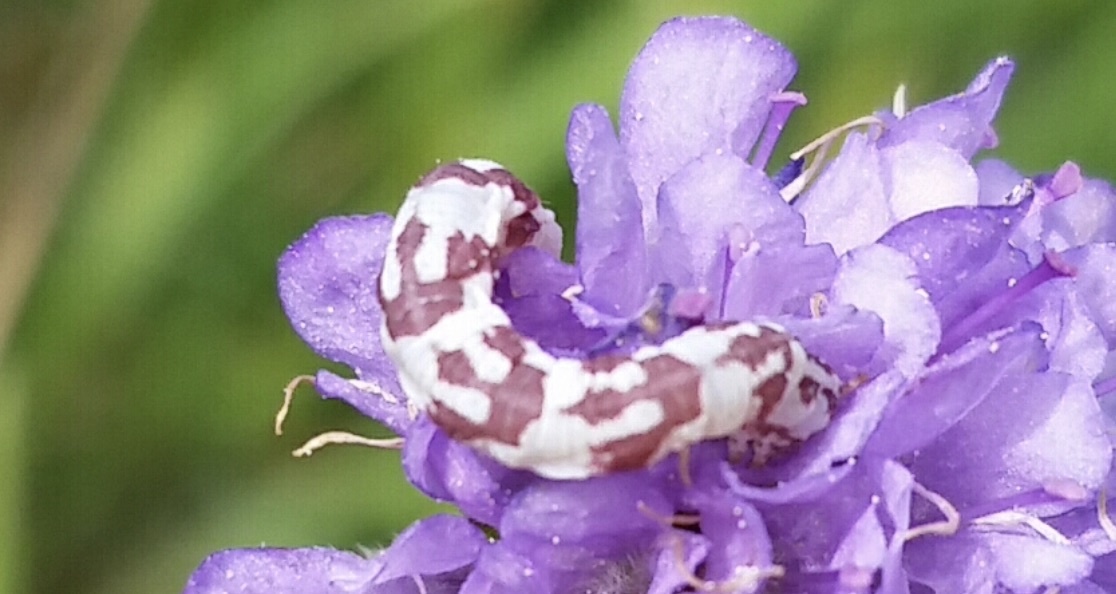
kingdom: Animalia
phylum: Arthropoda
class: Insecta
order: Lepidoptera
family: Geometridae
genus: Eupithecia
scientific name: Eupithecia centaureata
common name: Lime-speck pug
